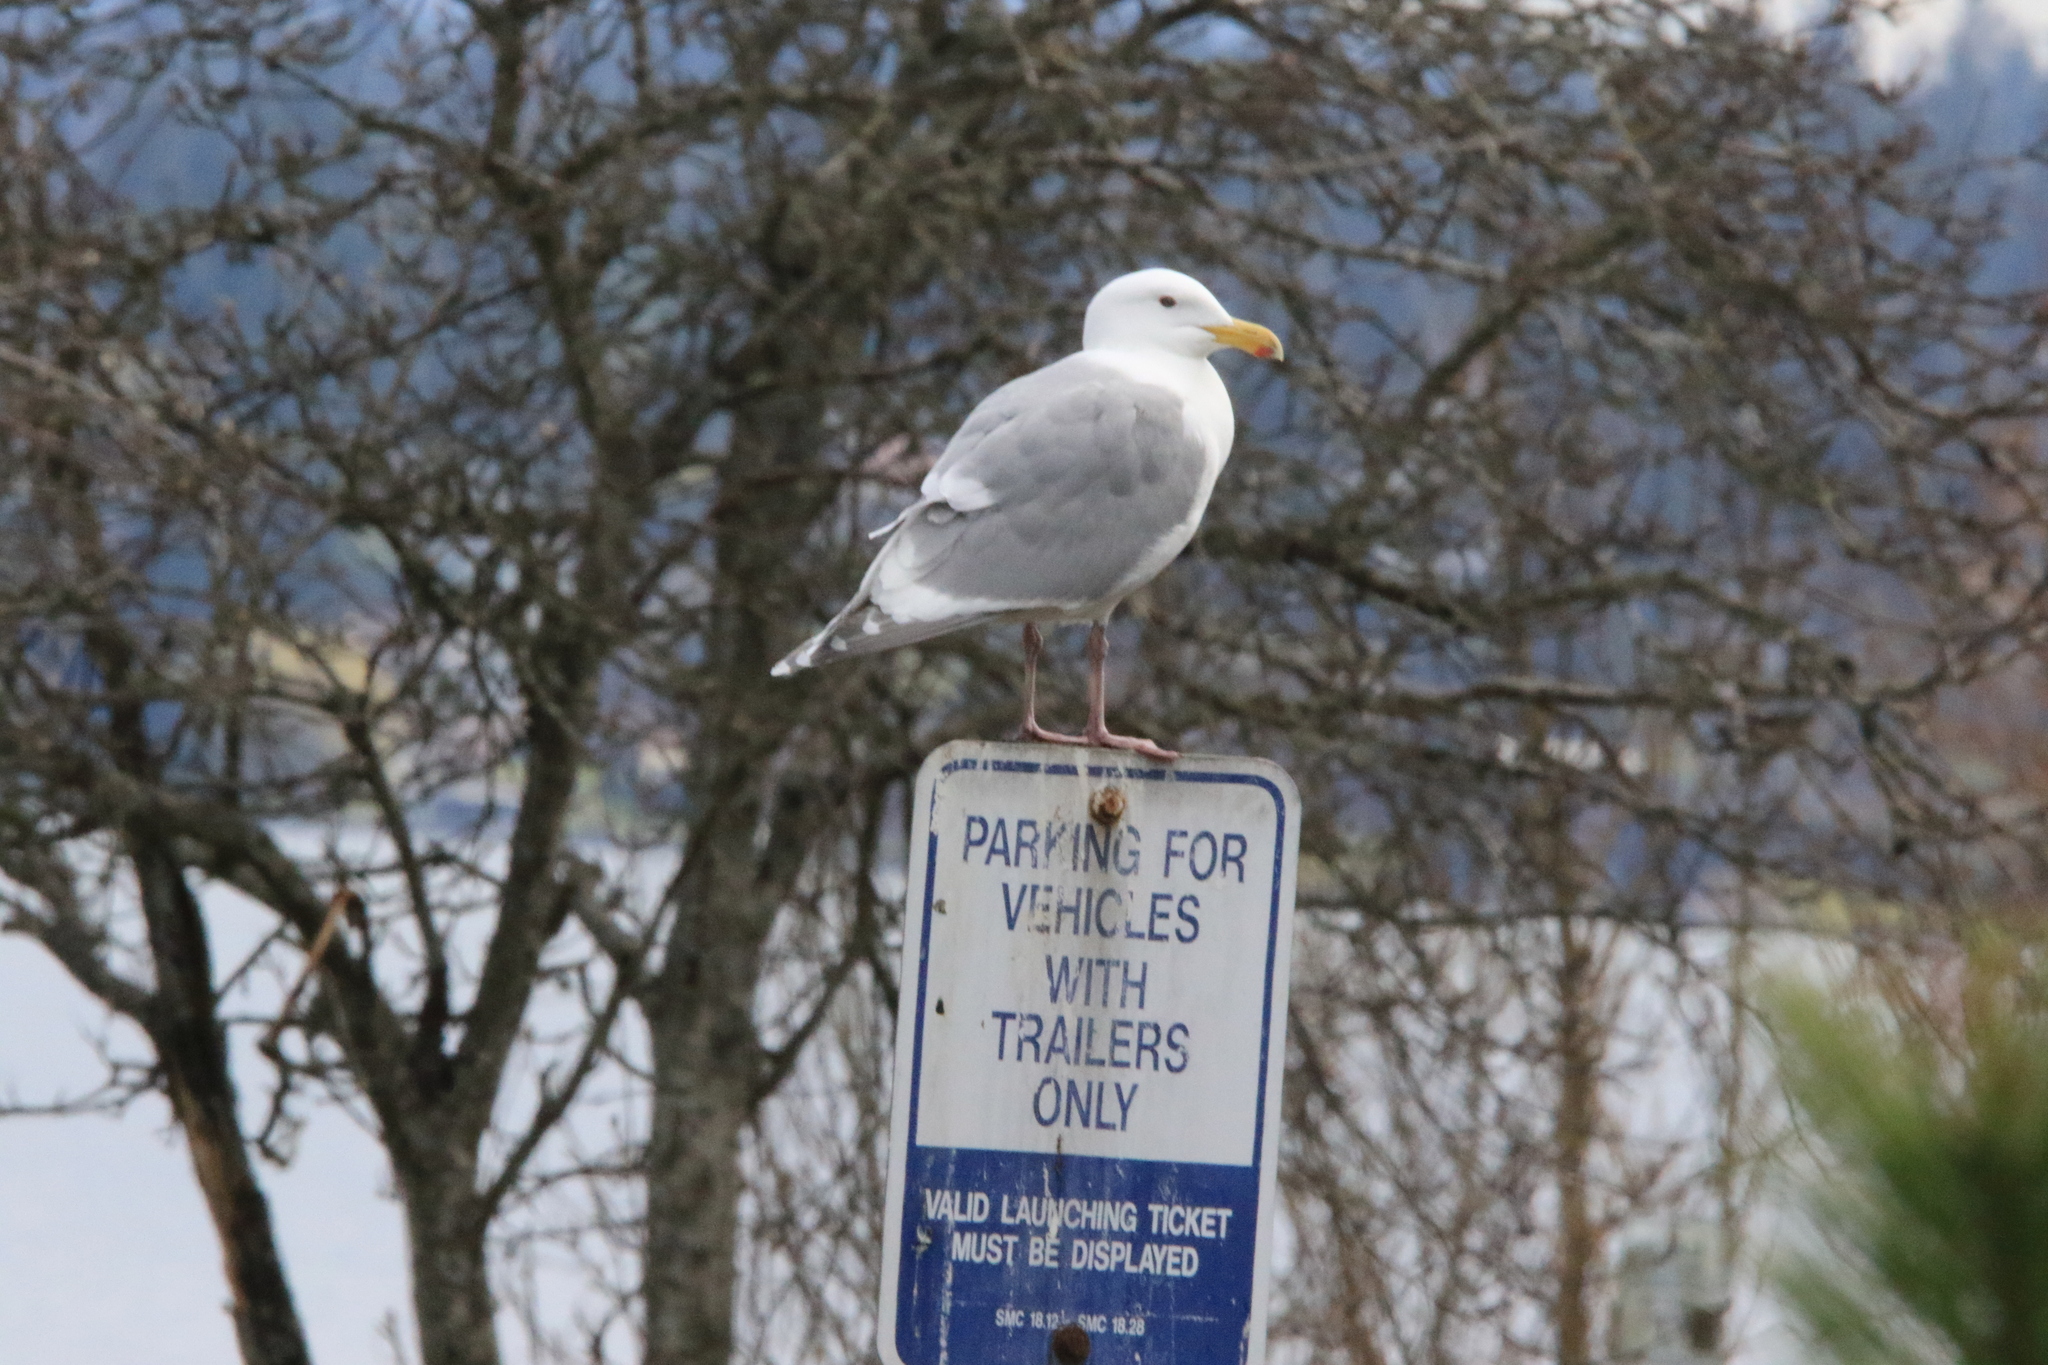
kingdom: Animalia
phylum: Chordata
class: Aves
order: Charadriiformes
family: Laridae
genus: Larus
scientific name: Larus glaucescens
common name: Glaucous-winged gull
